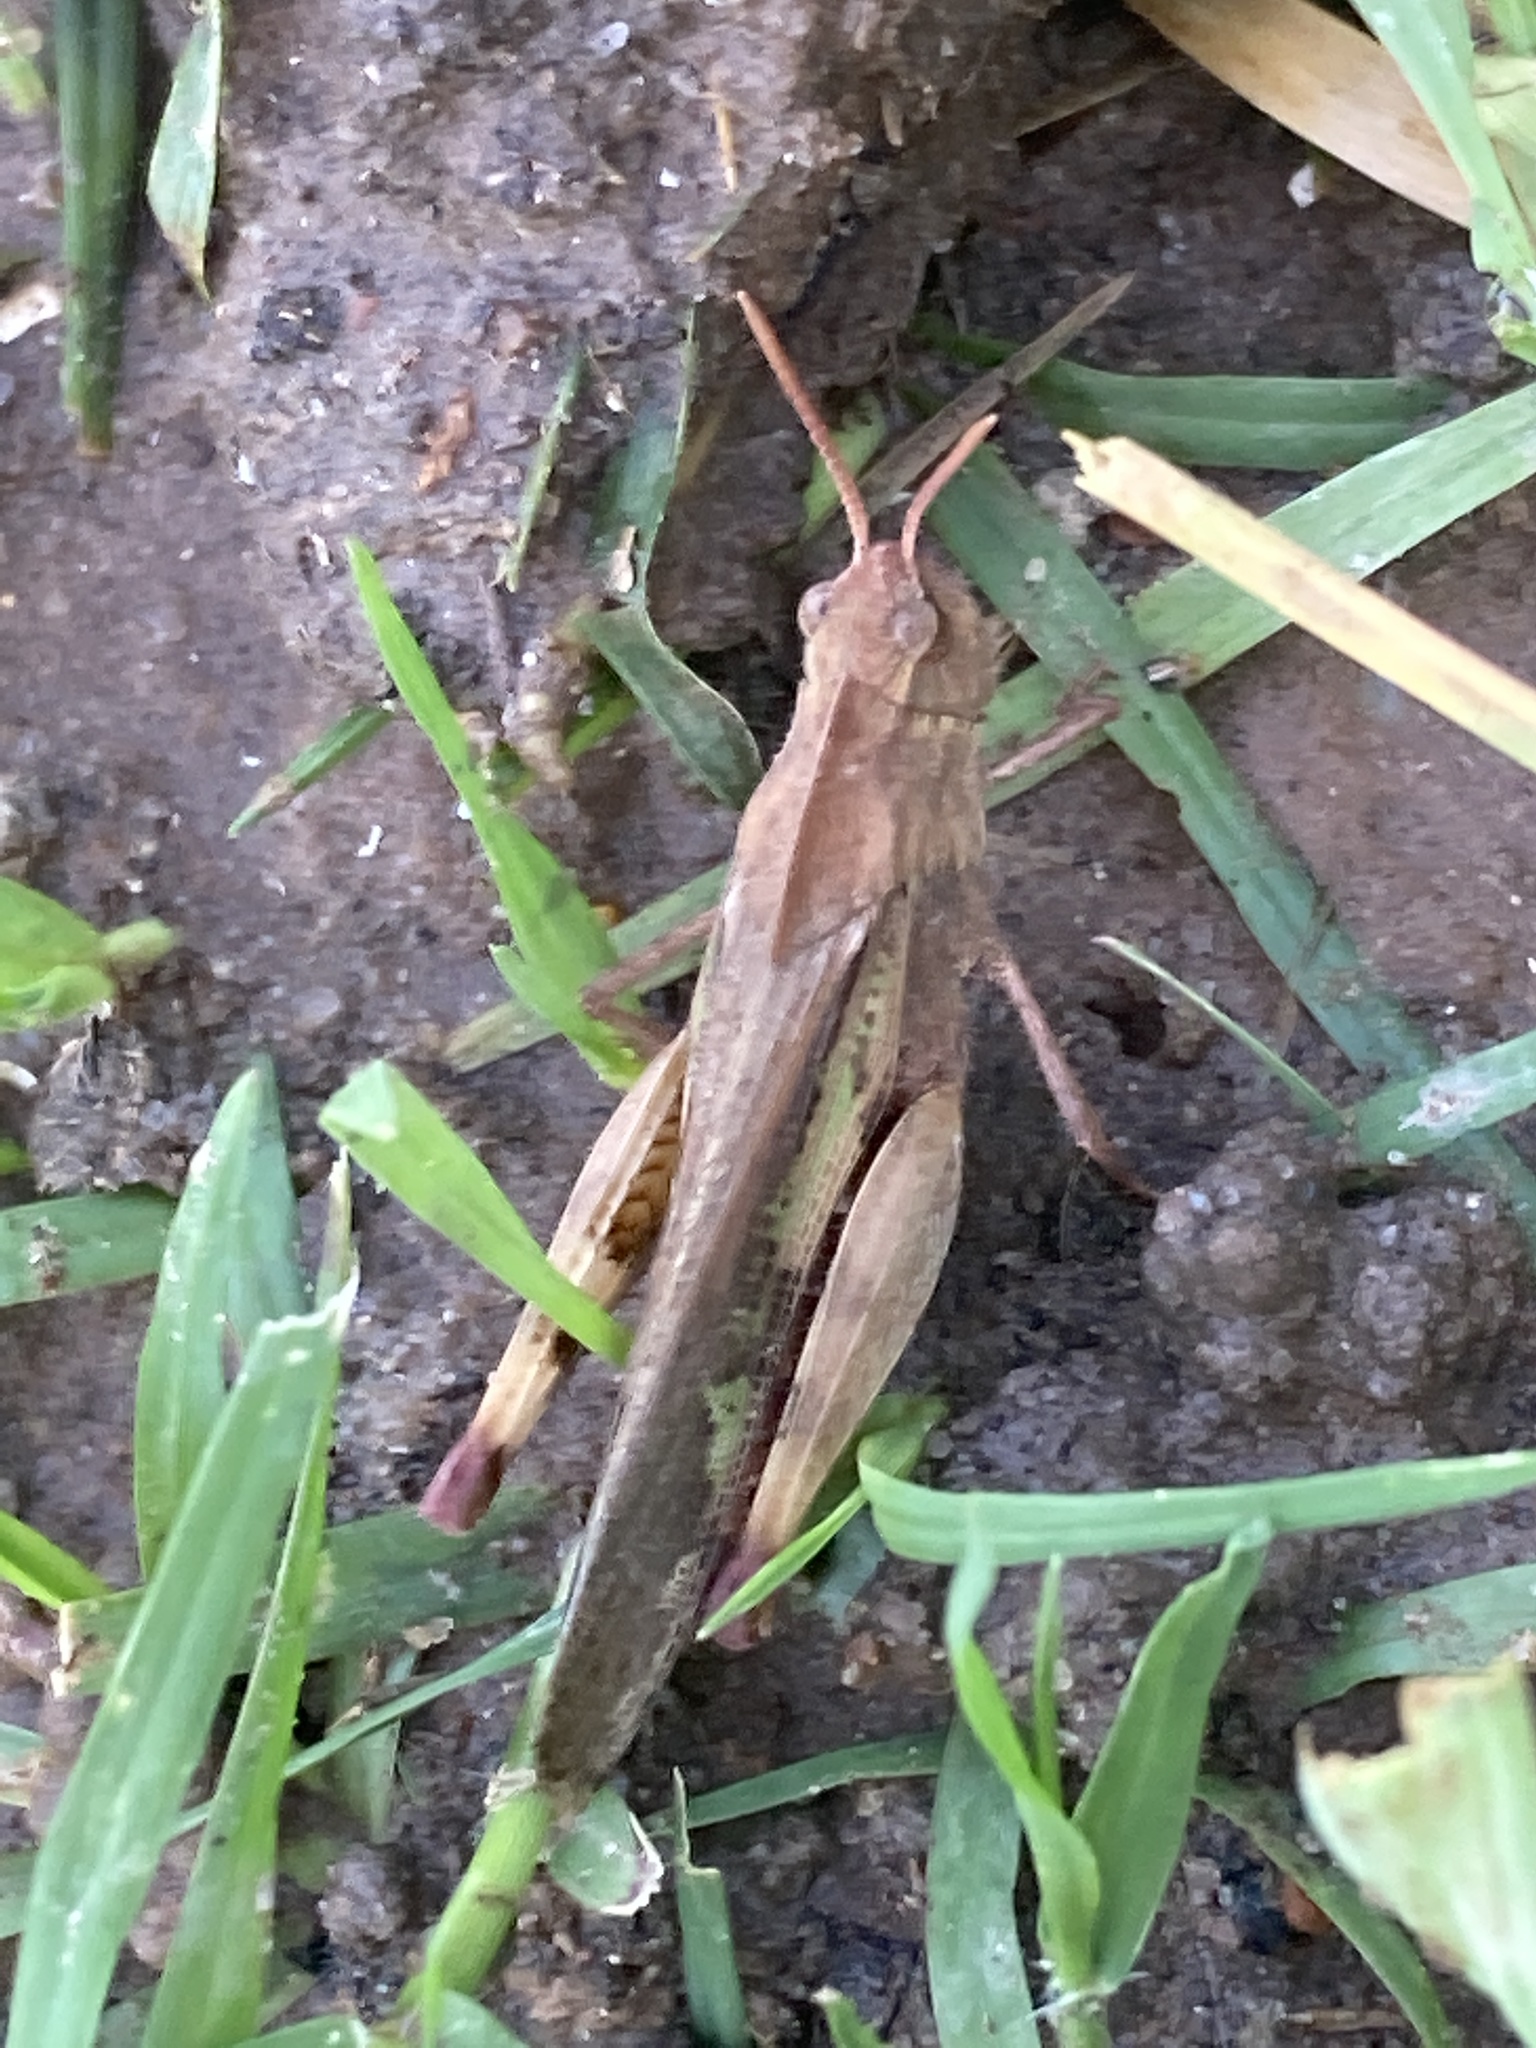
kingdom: Animalia
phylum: Arthropoda
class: Insecta
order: Orthoptera
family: Acrididae
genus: Chortophaga
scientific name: Chortophaga viridifasciata
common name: Green-striped grasshopper
